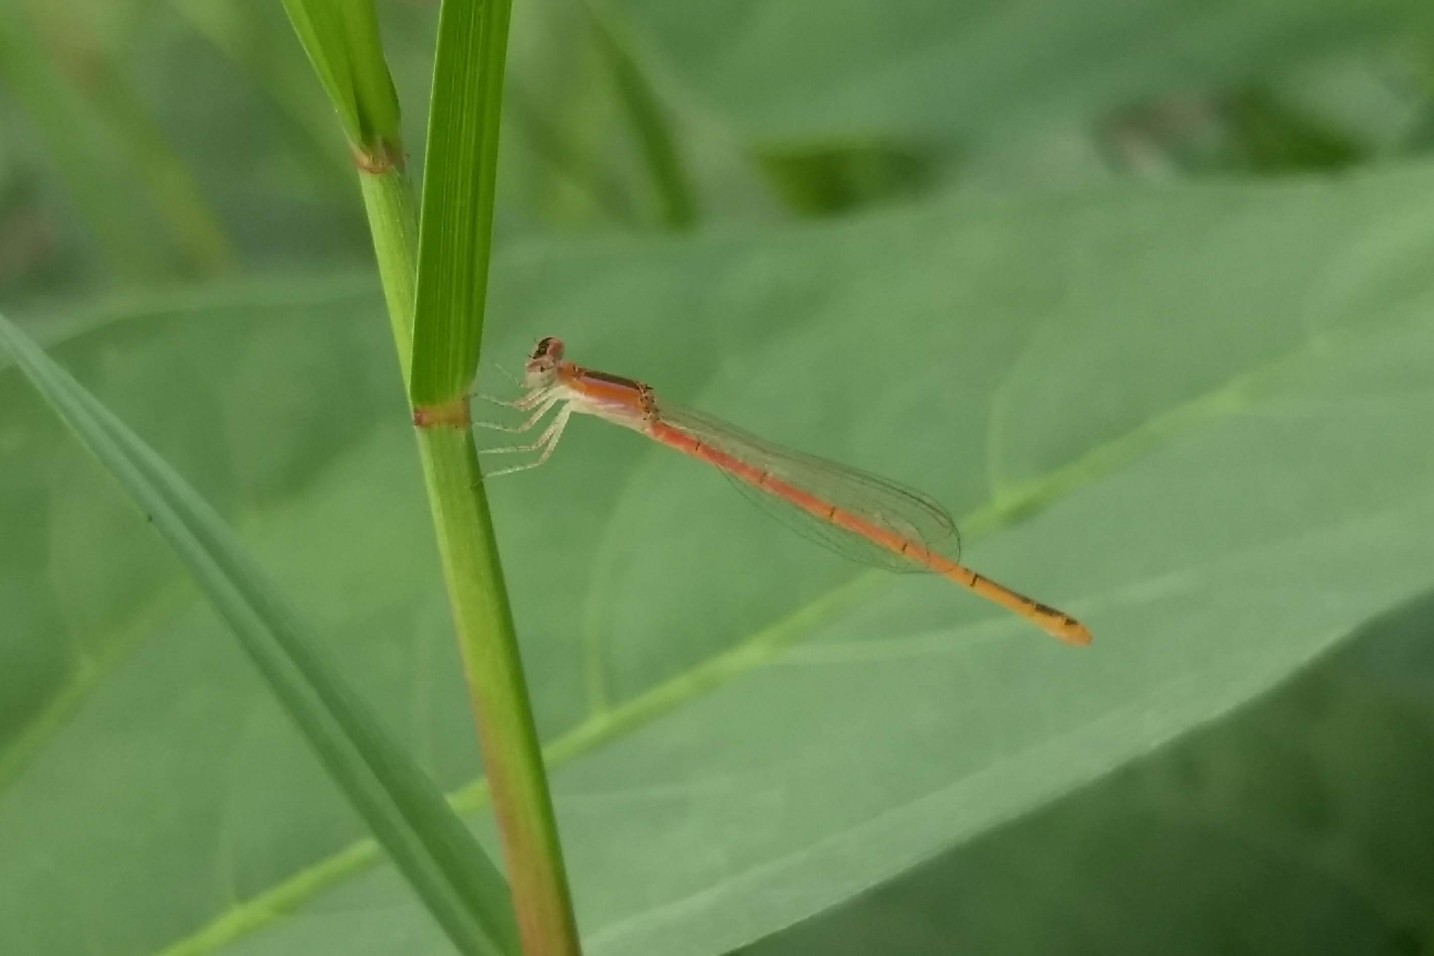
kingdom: Animalia
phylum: Arthropoda
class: Insecta
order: Odonata
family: Coenagrionidae
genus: Agriocnemis
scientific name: Agriocnemis pygmaea
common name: Pygmy wisp
